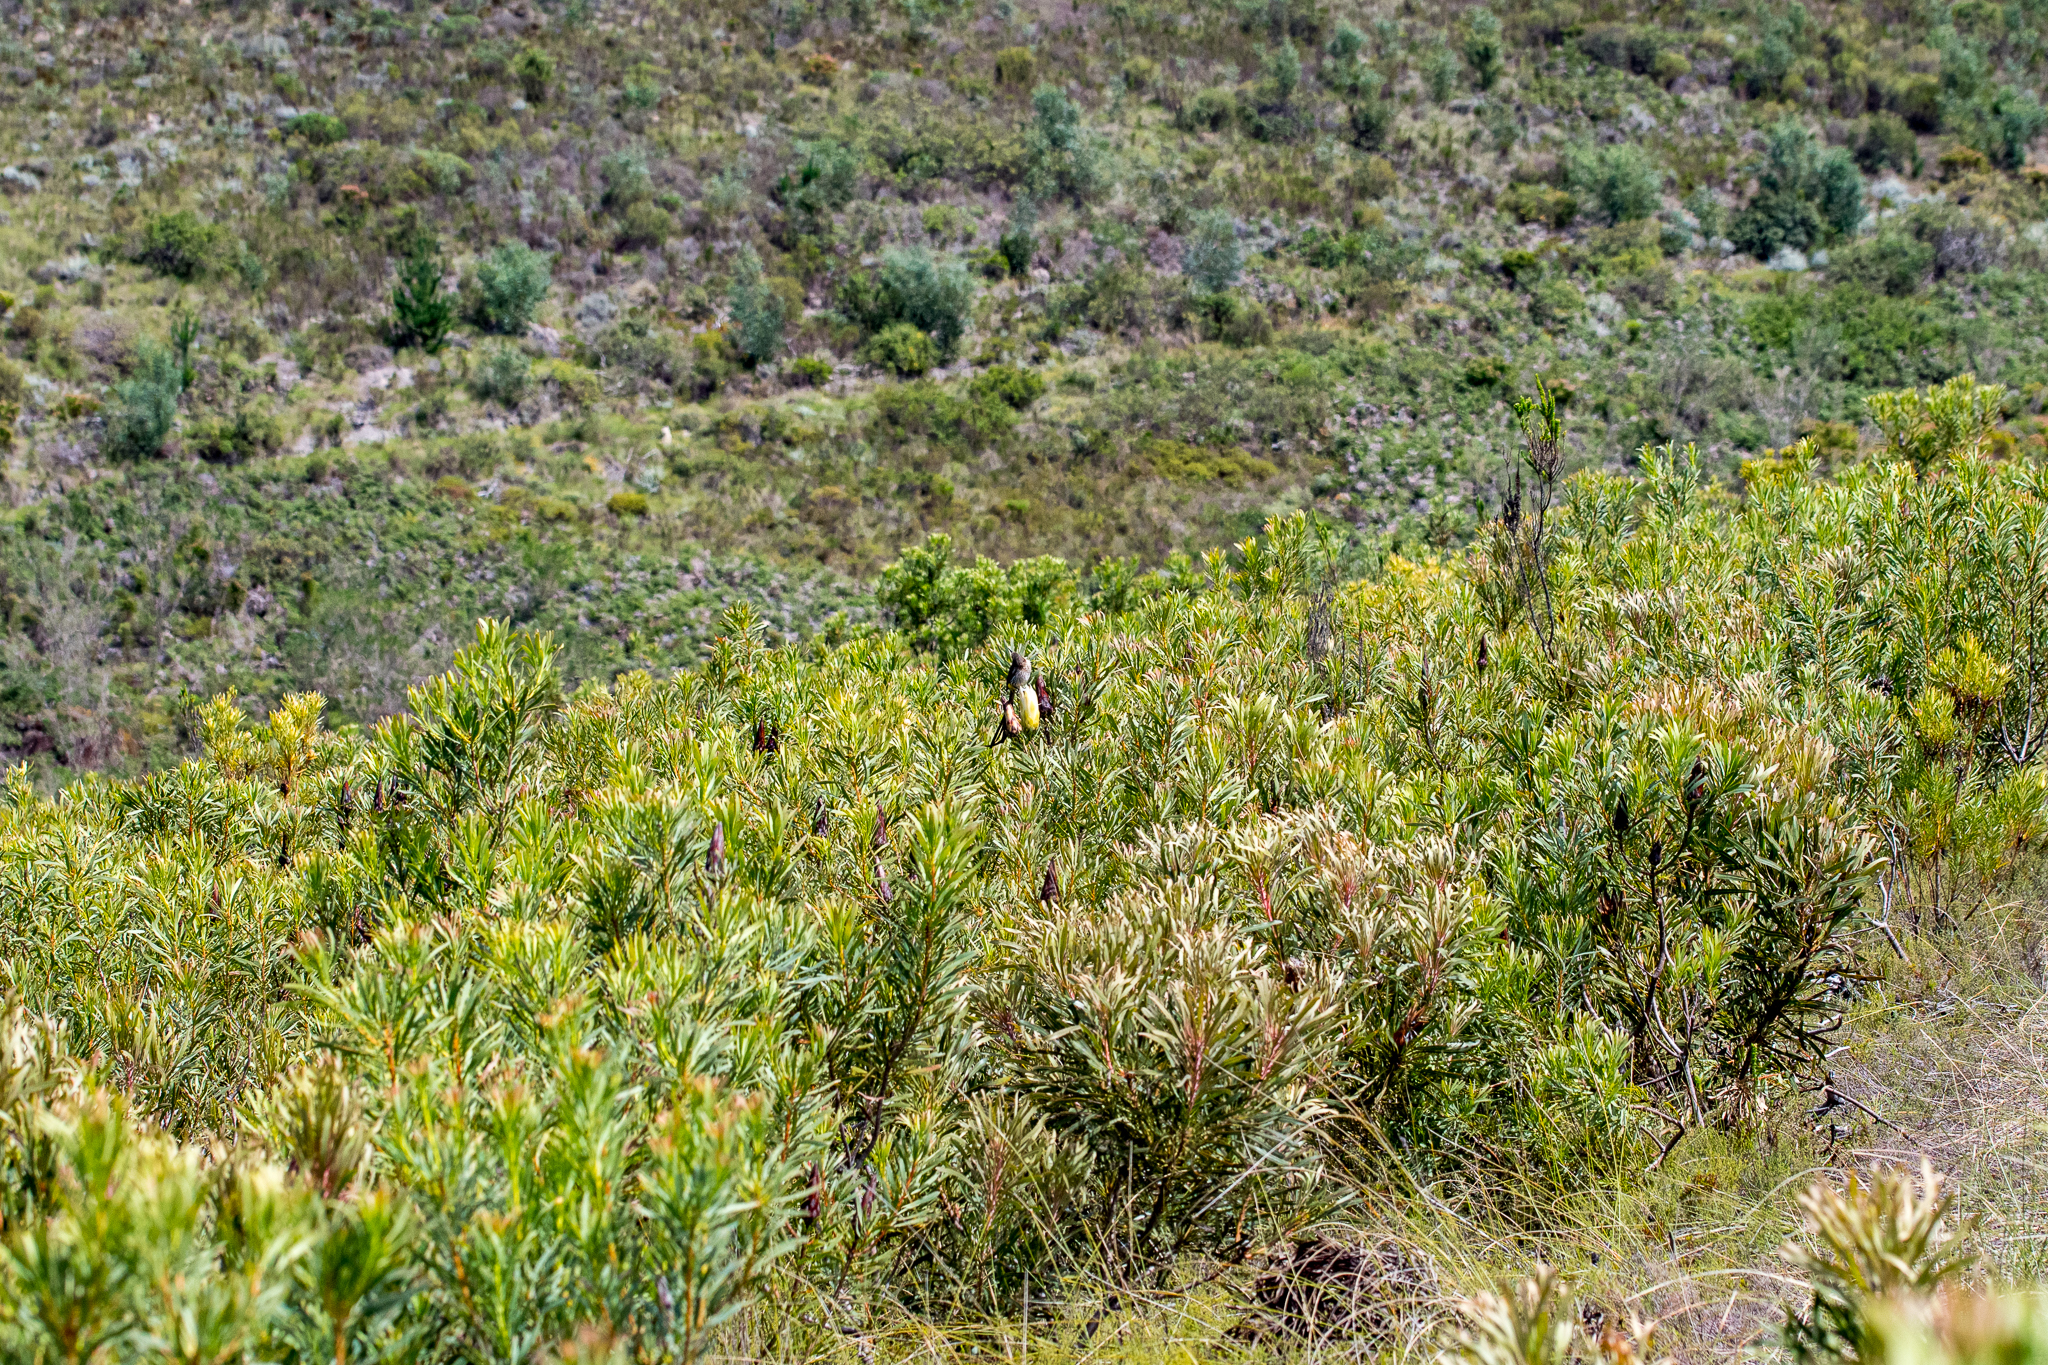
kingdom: Animalia
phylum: Chordata
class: Aves
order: Passeriformes
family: Promeropidae
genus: Promerops
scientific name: Promerops cafer
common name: Cape sugarbird
